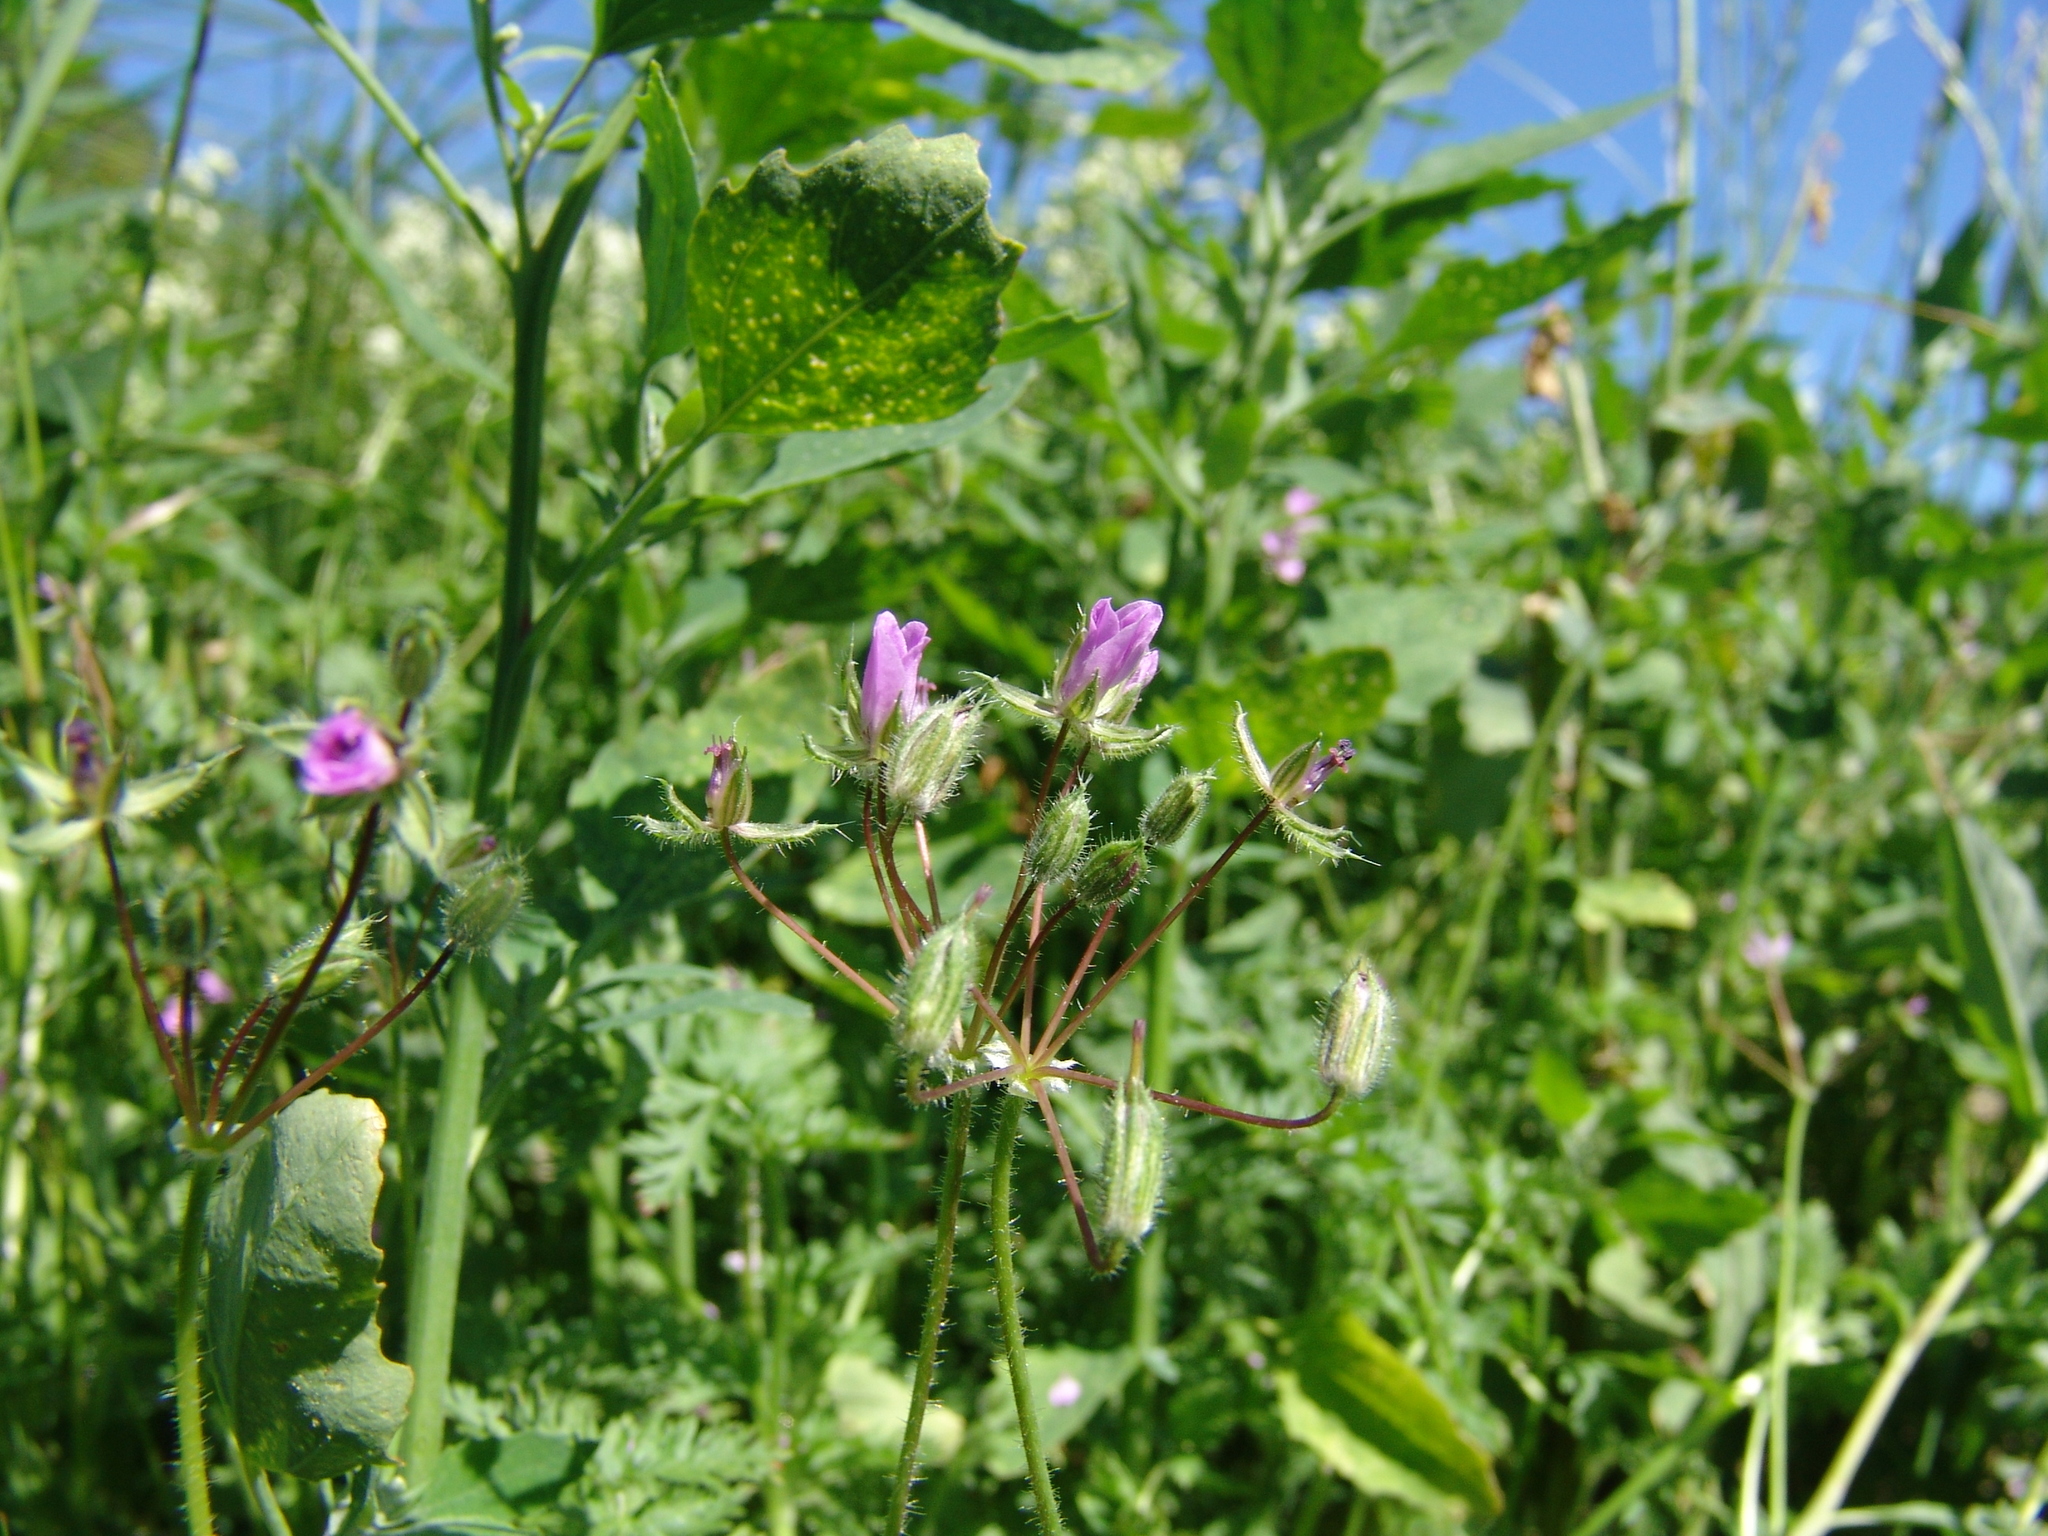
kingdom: Plantae
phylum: Tracheophyta
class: Magnoliopsida
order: Geraniales
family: Geraniaceae
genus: Erodium
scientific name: Erodium cicutarium
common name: Common stork's-bill
